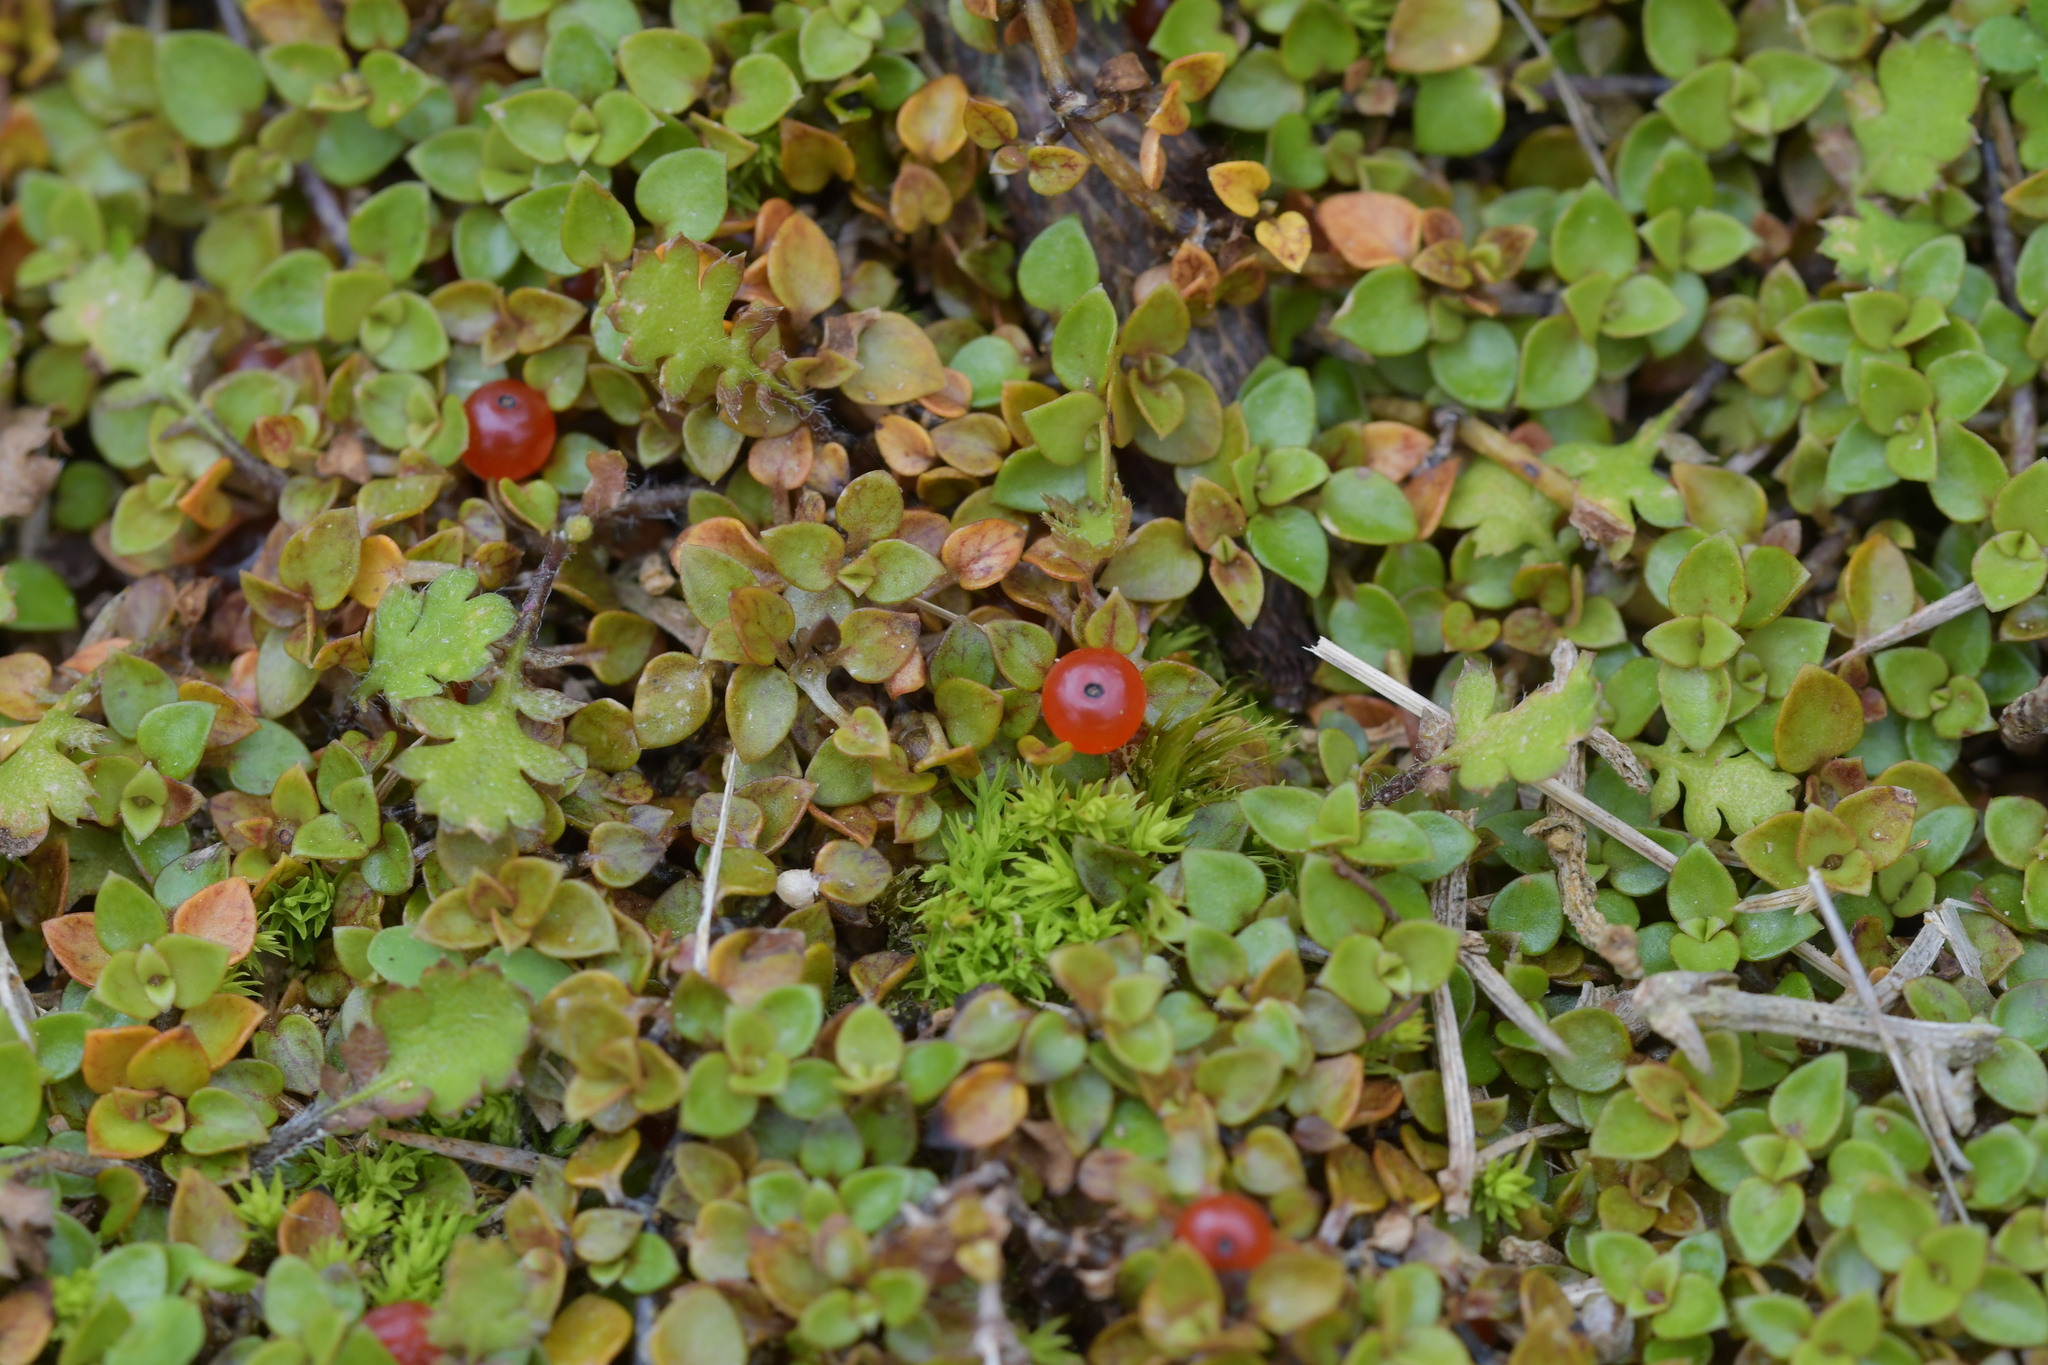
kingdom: Plantae
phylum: Tracheophyta
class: Magnoliopsida
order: Gentianales
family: Rubiaceae
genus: Nertera
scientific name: Nertera granadensis
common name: Beadplant
